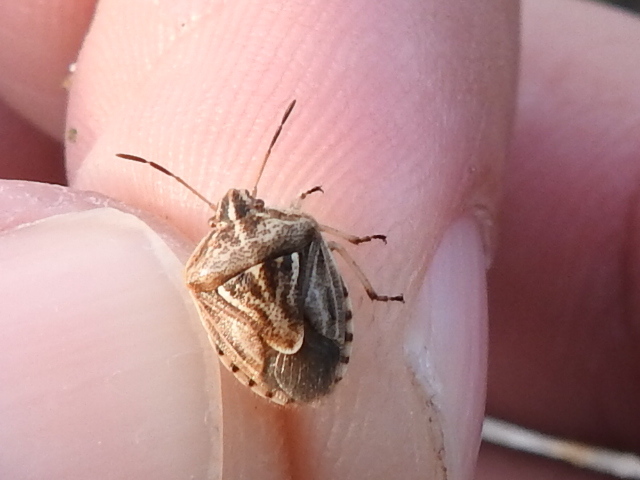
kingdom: Animalia
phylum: Arthropoda
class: Insecta
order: Hemiptera
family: Pentatomidae
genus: Trichopepla
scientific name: Trichopepla semivittata
